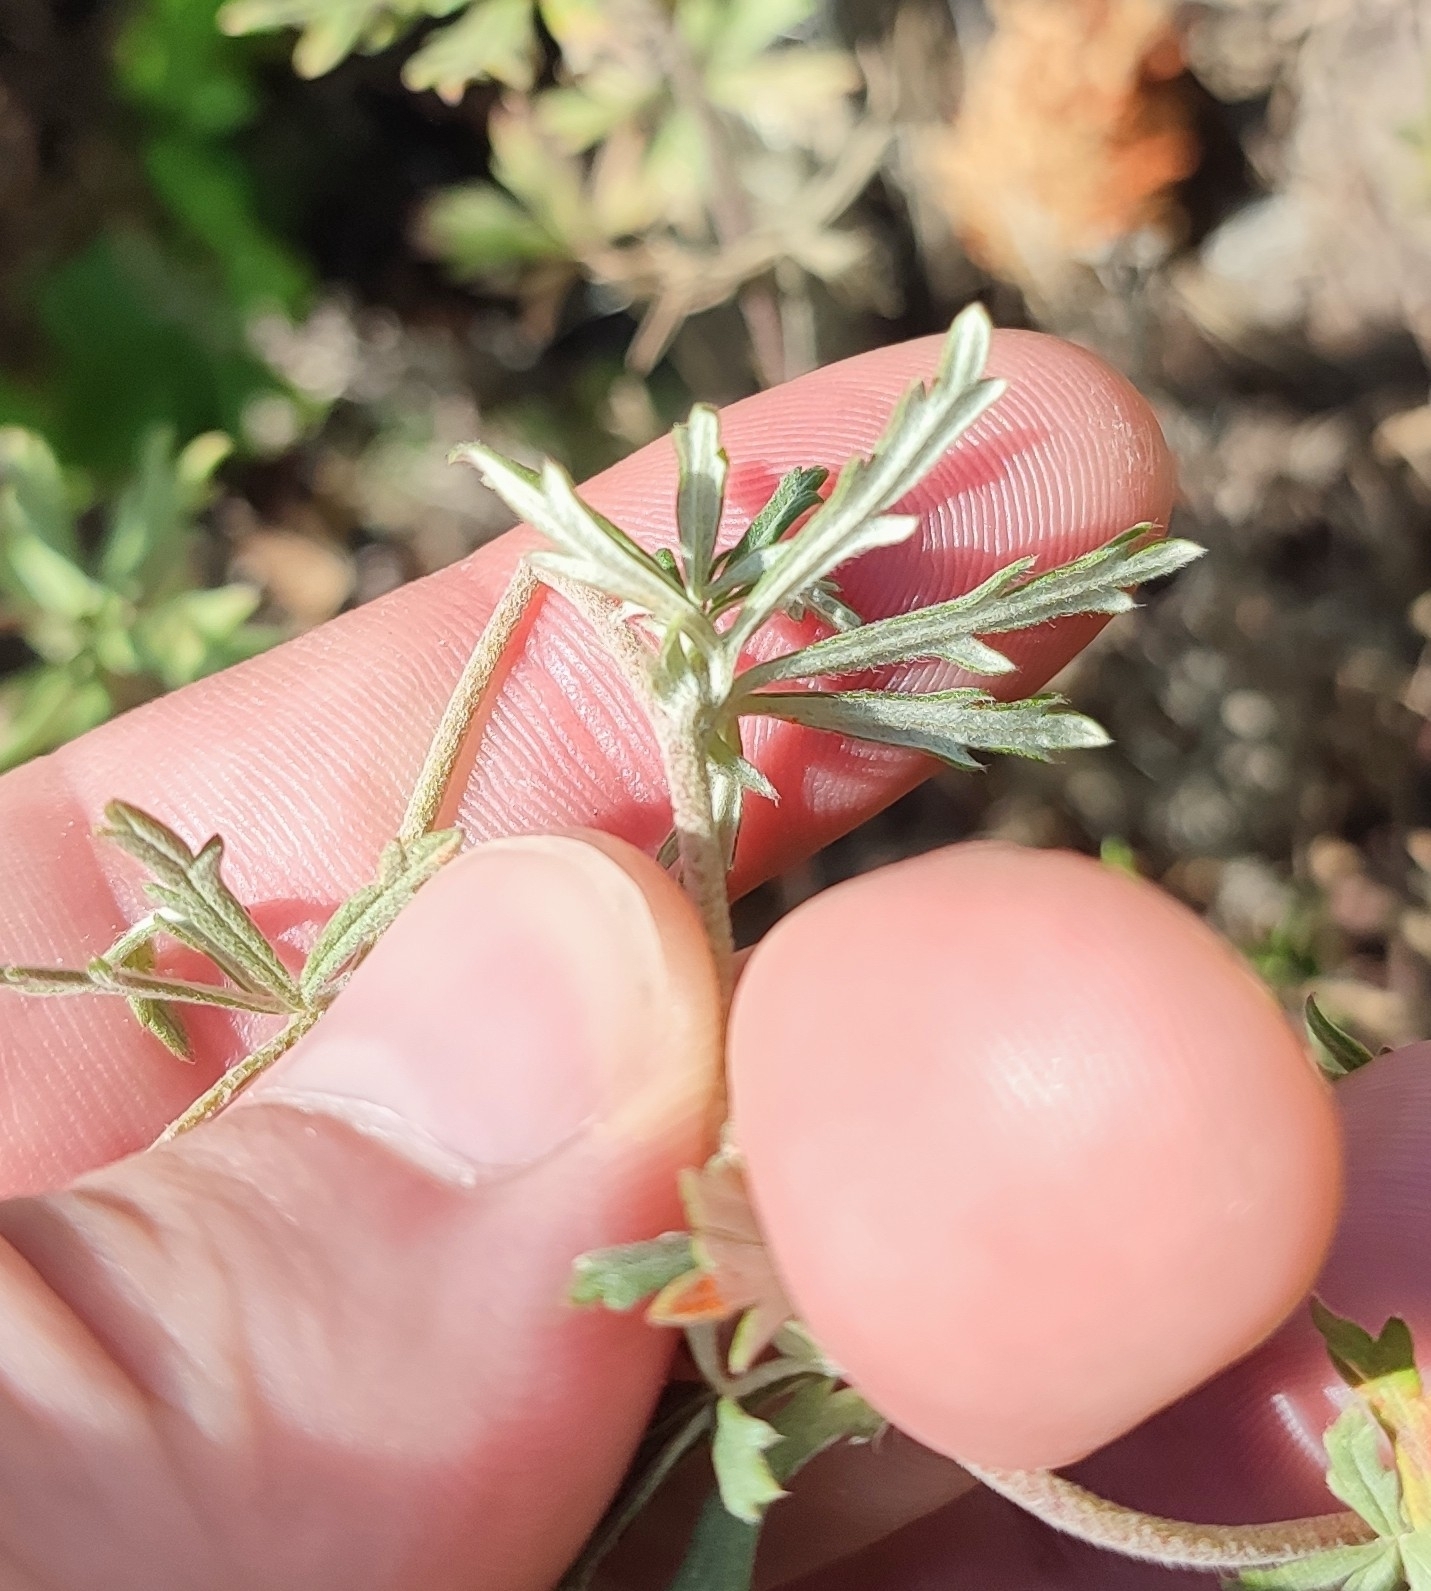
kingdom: Plantae
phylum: Tracheophyta
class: Magnoliopsida
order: Rosales
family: Rosaceae
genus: Potentilla
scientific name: Potentilla argentea
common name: Hoary cinquefoil
